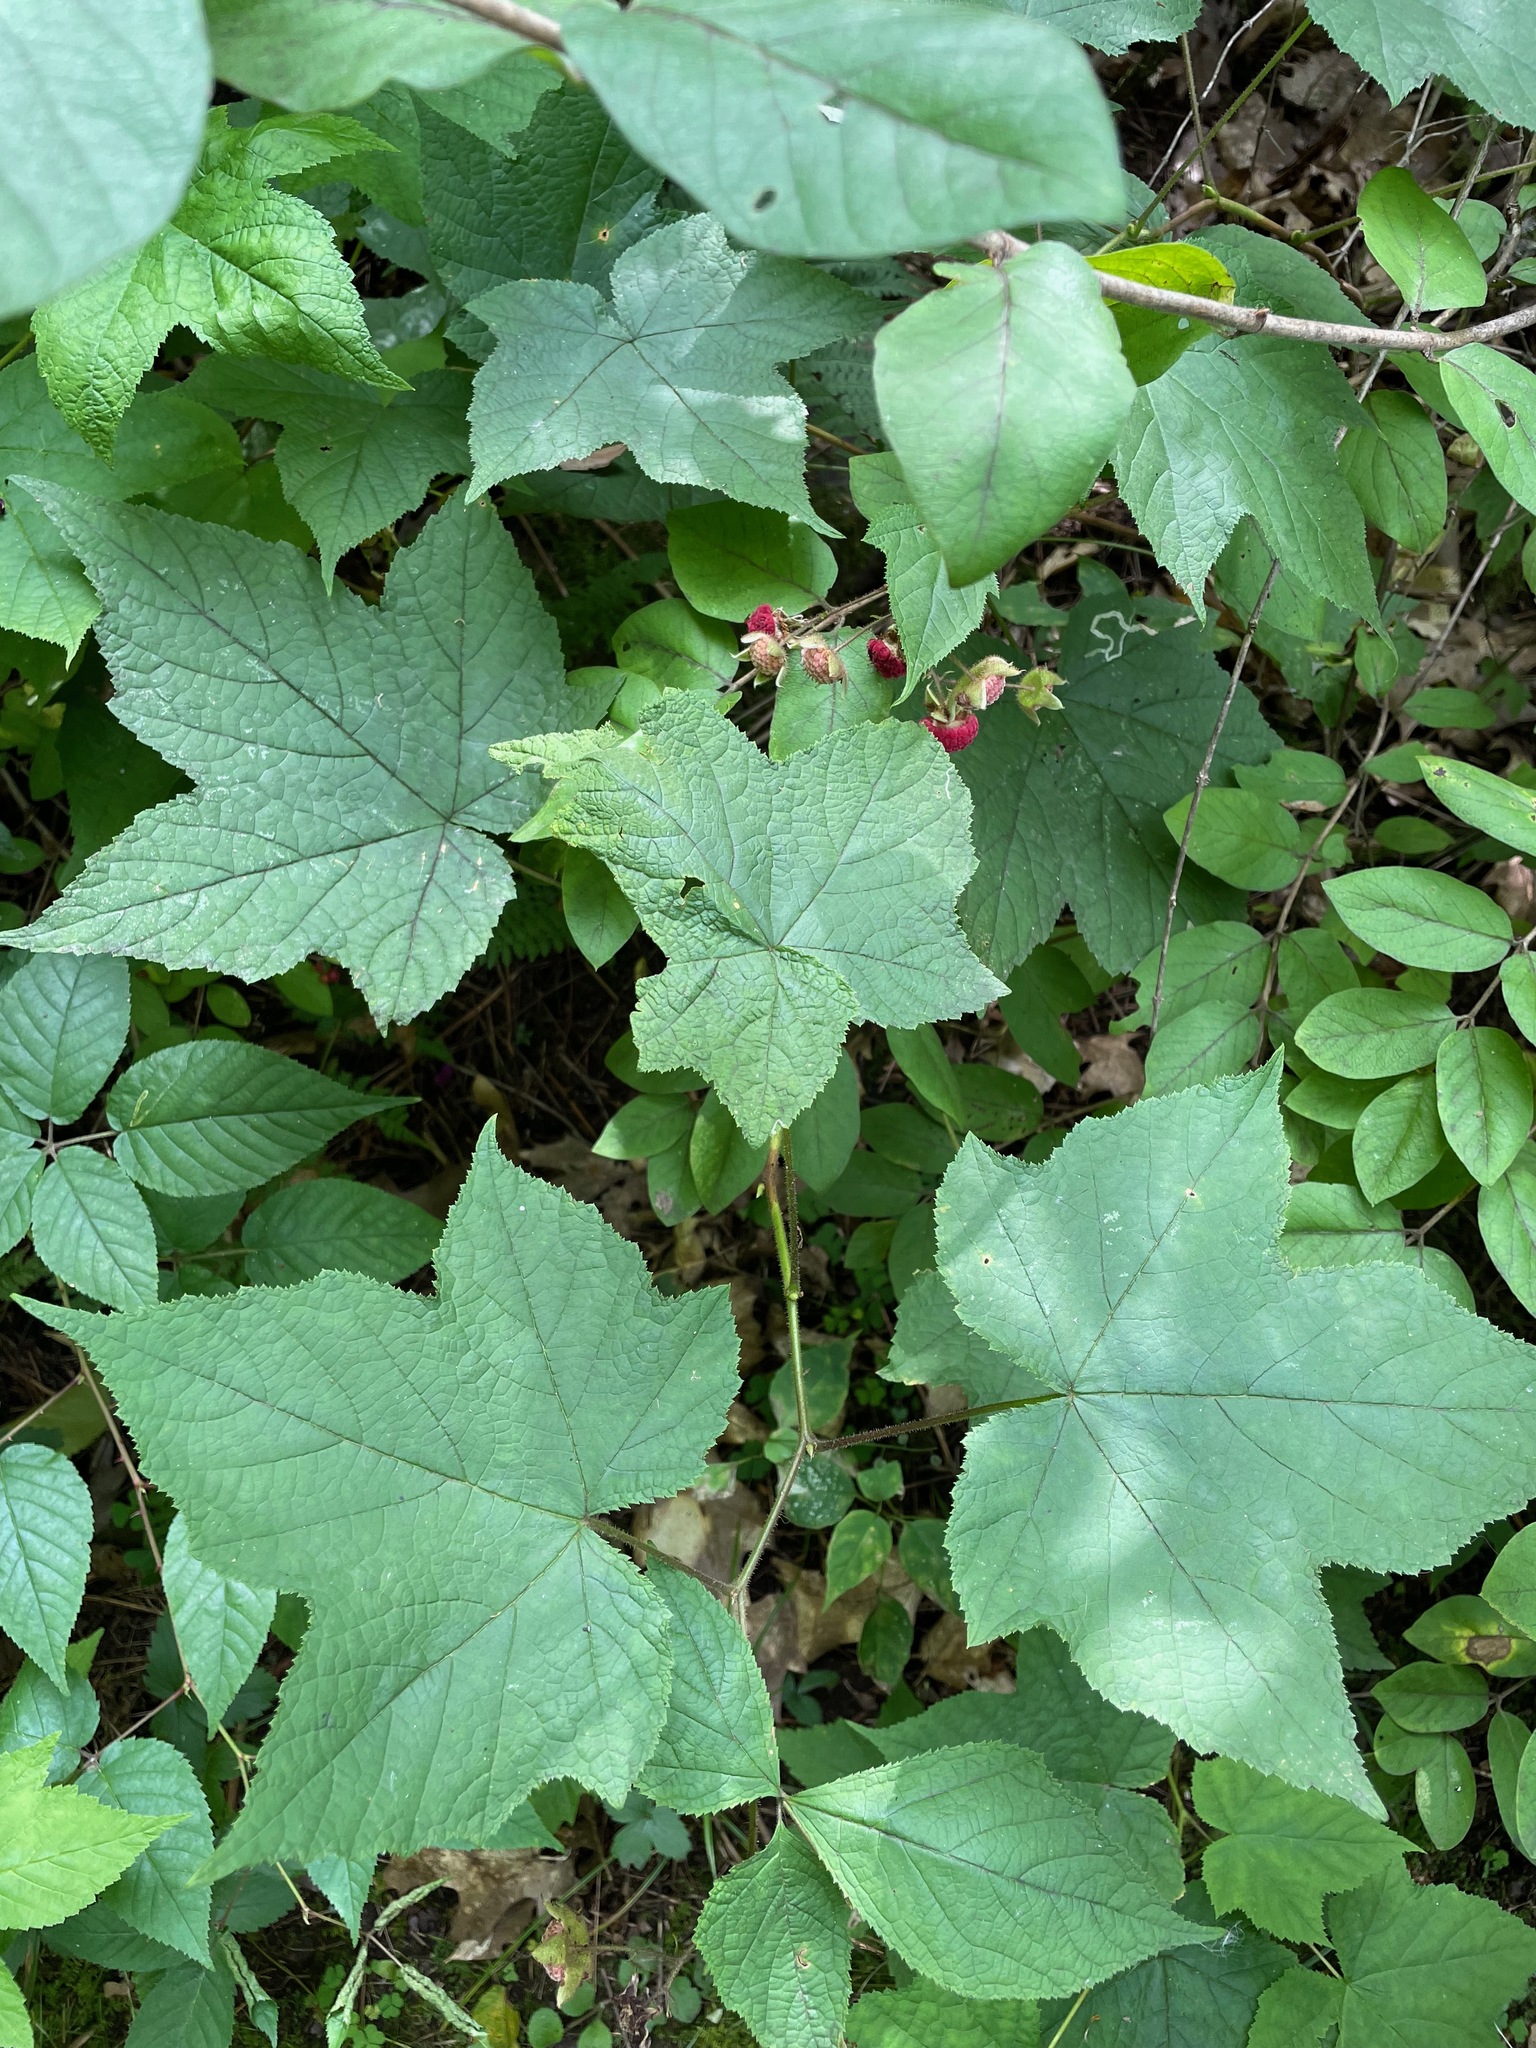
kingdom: Plantae
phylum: Tracheophyta
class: Magnoliopsida
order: Rosales
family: Rosaceae
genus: Rubus
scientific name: Rubus odoratus
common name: Purple-flowered raspberry
